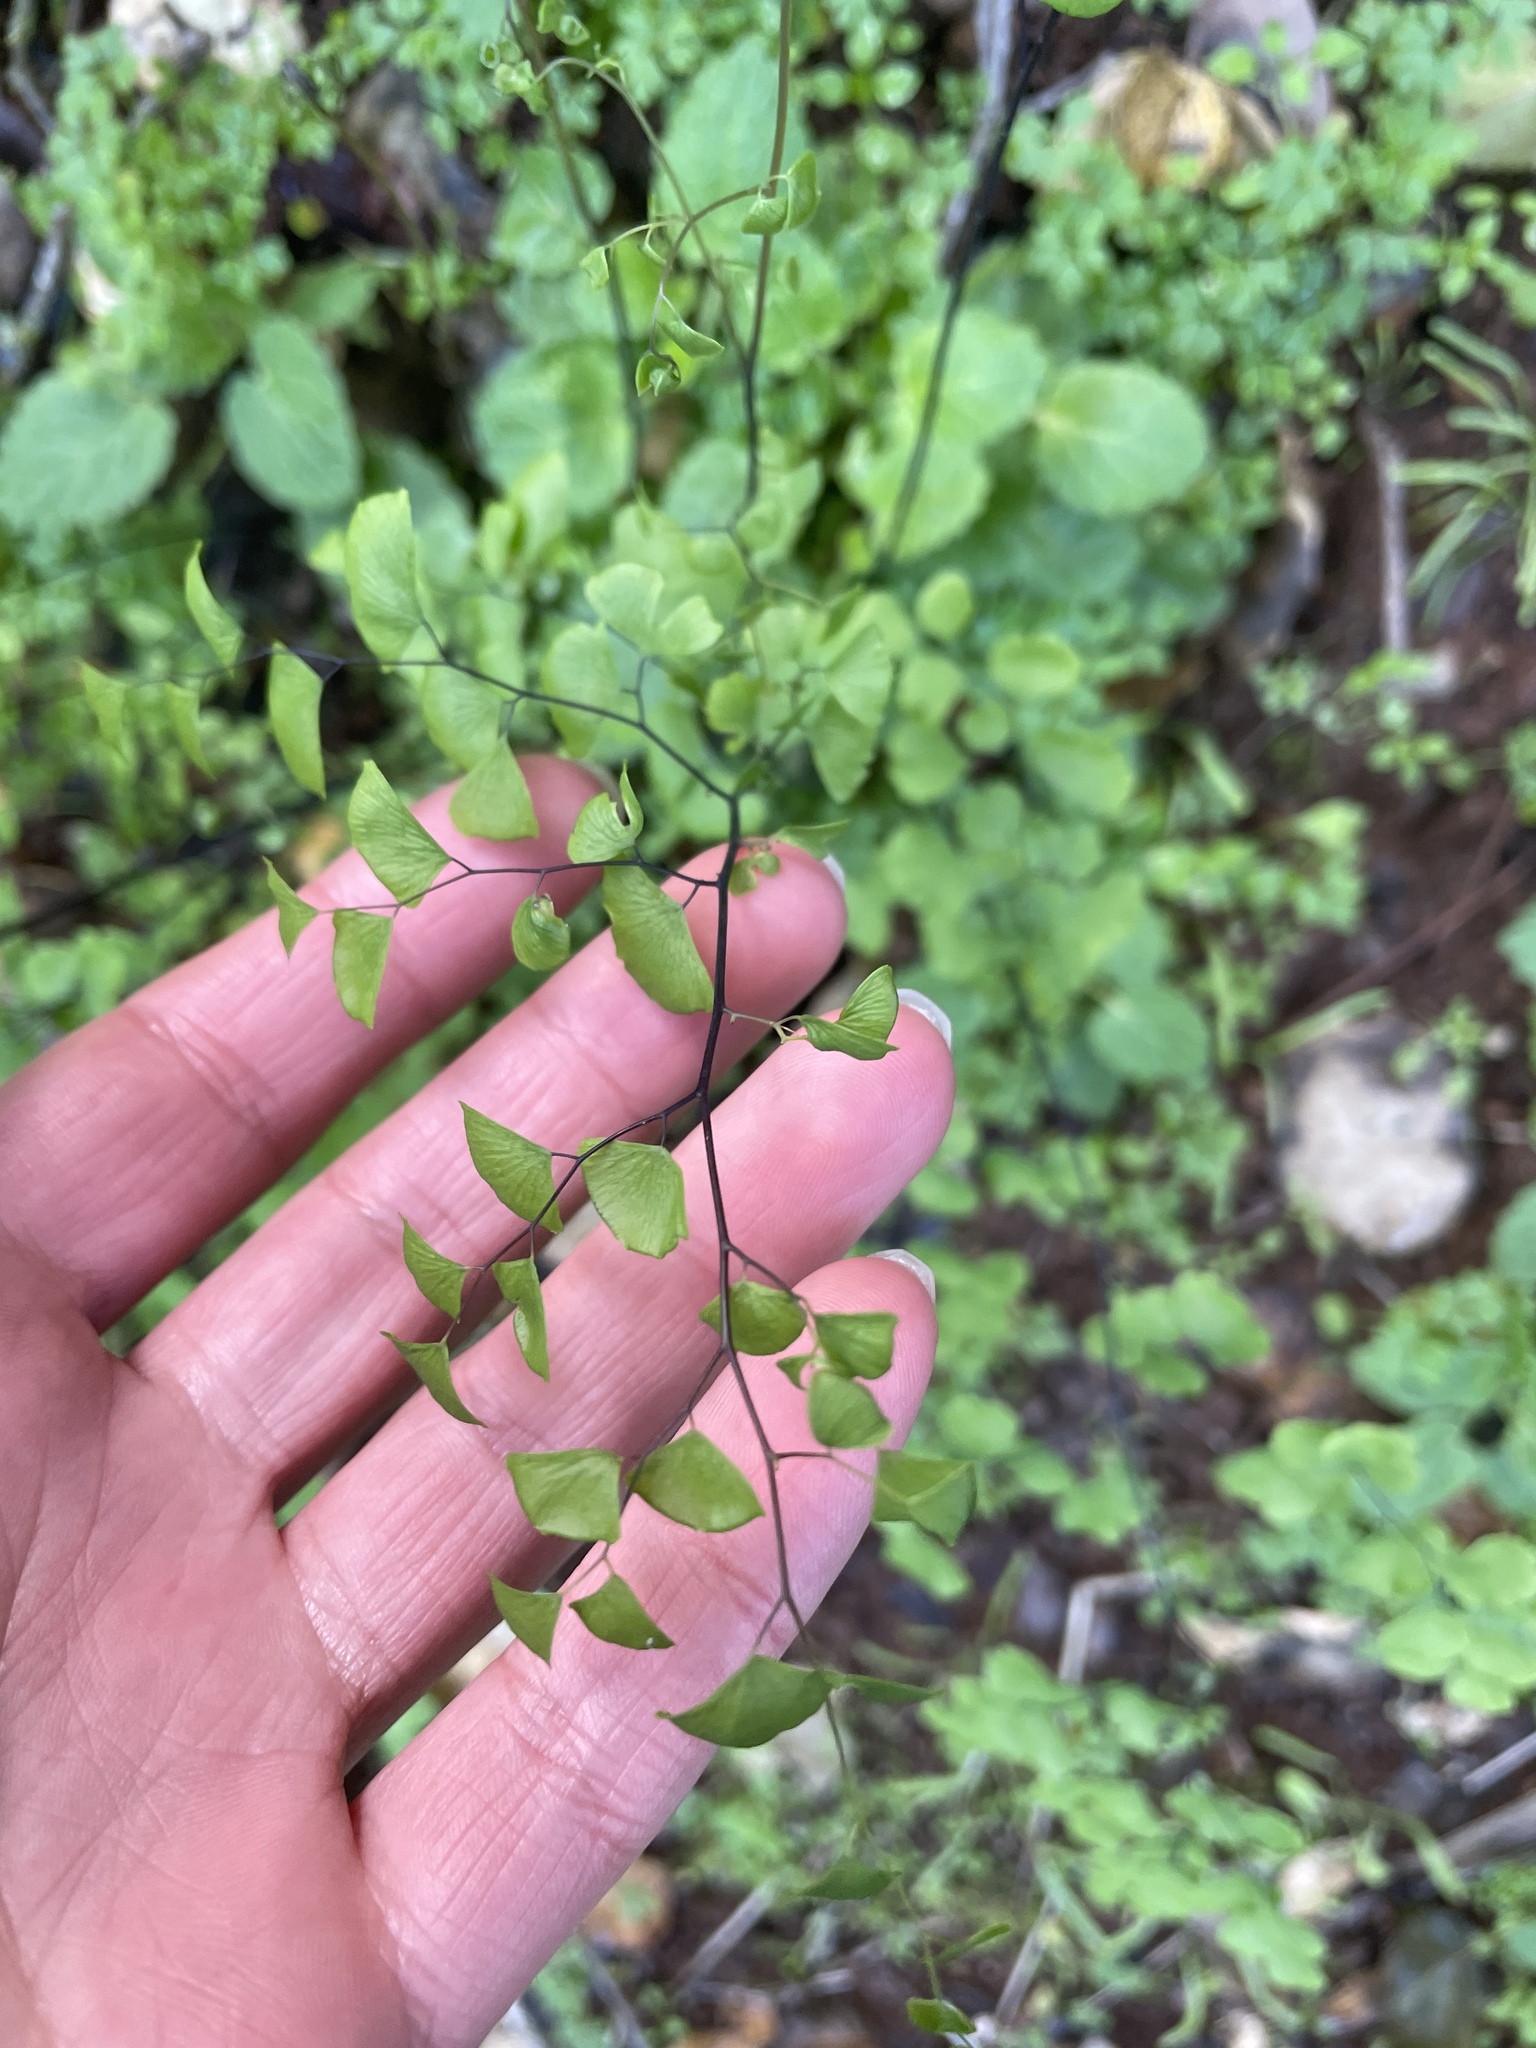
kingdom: Plantae
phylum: Tracheophyta
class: Polypodiopsida
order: Polypodiales
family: Pteridaceae
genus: Adiantum
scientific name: Adiantum jordanii
